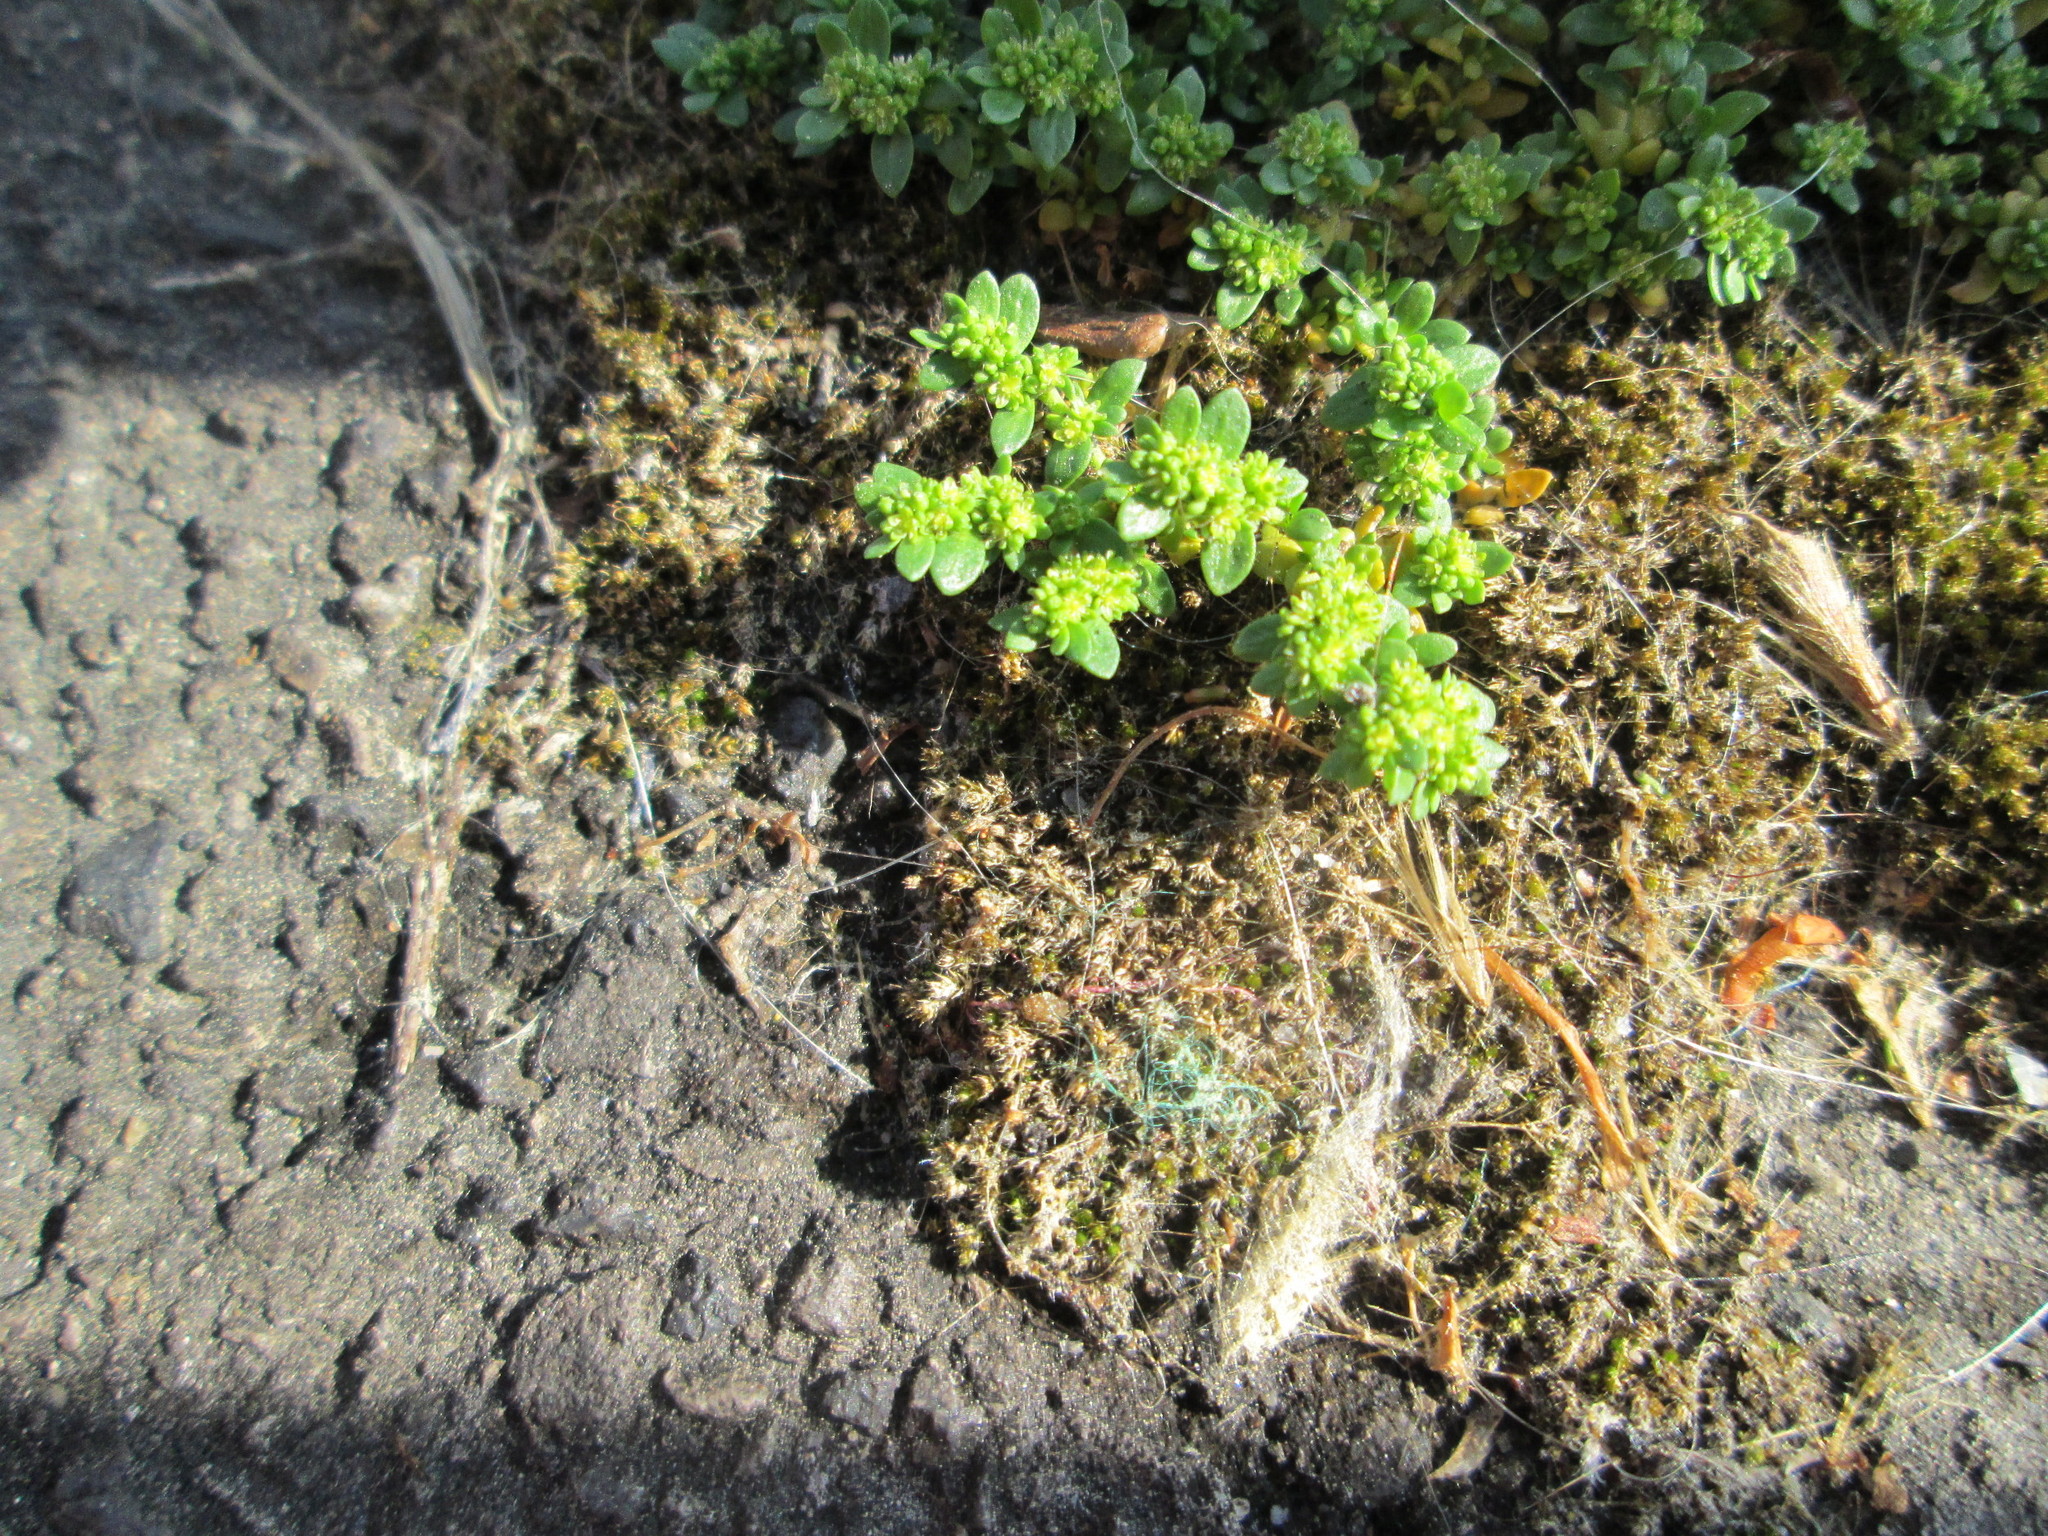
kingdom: Plantae
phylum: Tracheophyta
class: Magnoliopsida
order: Caryophyllales
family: Caryophyllaceae
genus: Herniaria
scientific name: Herniaria glabra
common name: Smooth rupturewort
